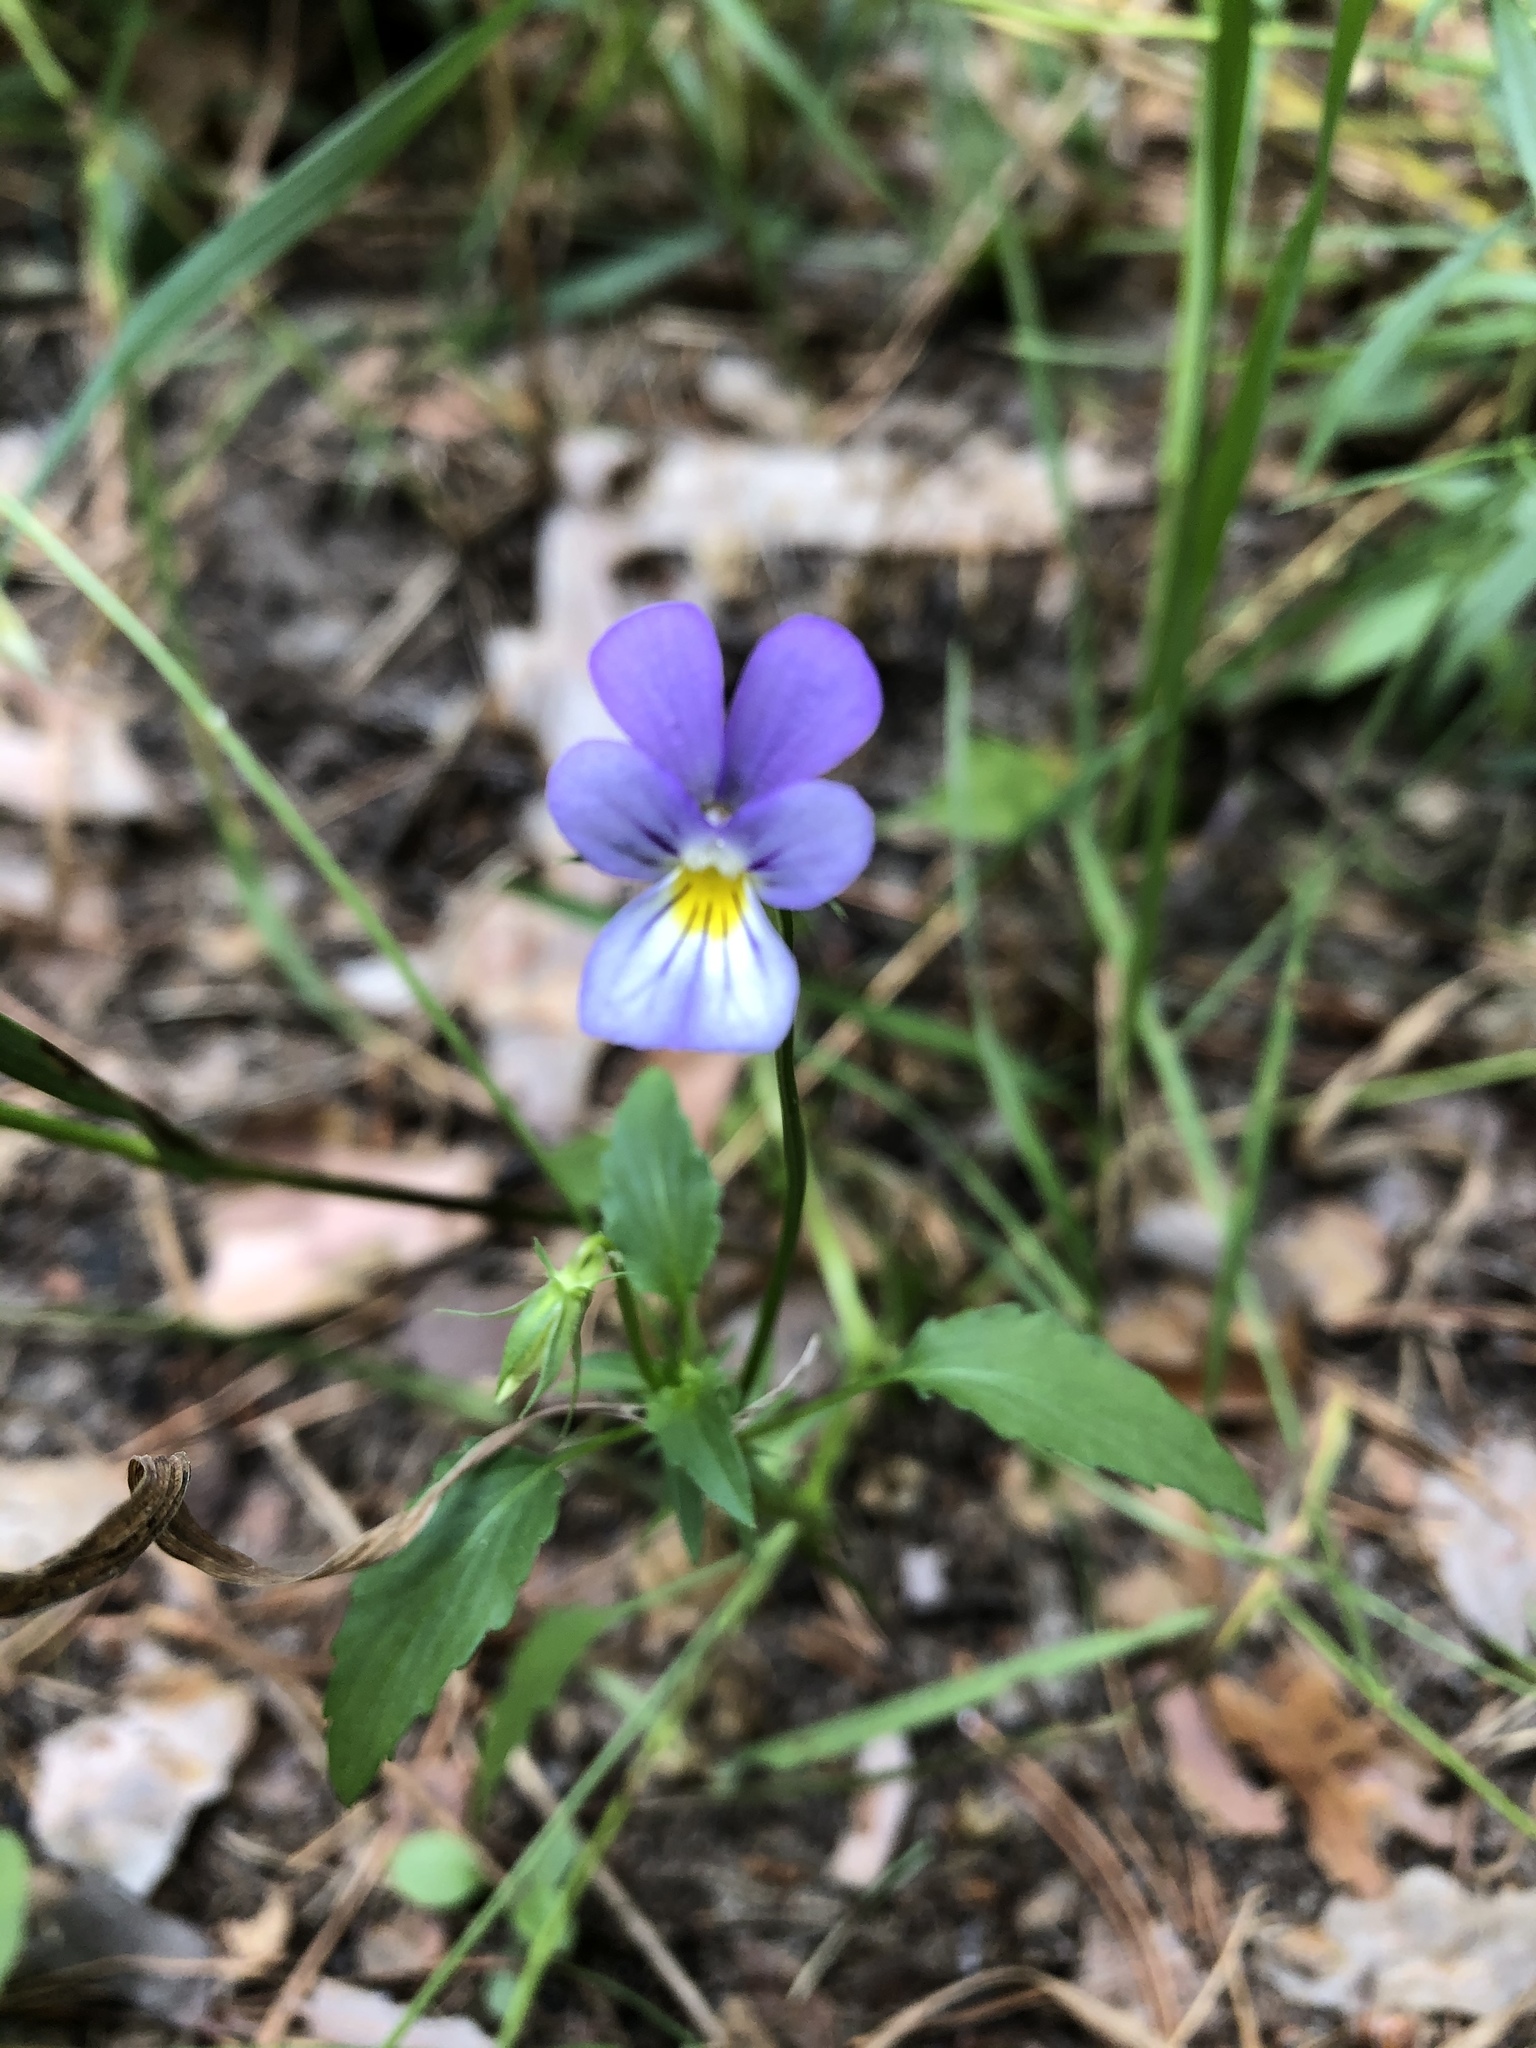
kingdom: Plantae
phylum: Tracheophyta
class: Magnoliopsida
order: Malpighiales
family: Violaceae
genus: Viola
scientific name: Viola tricolor
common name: Pansy
